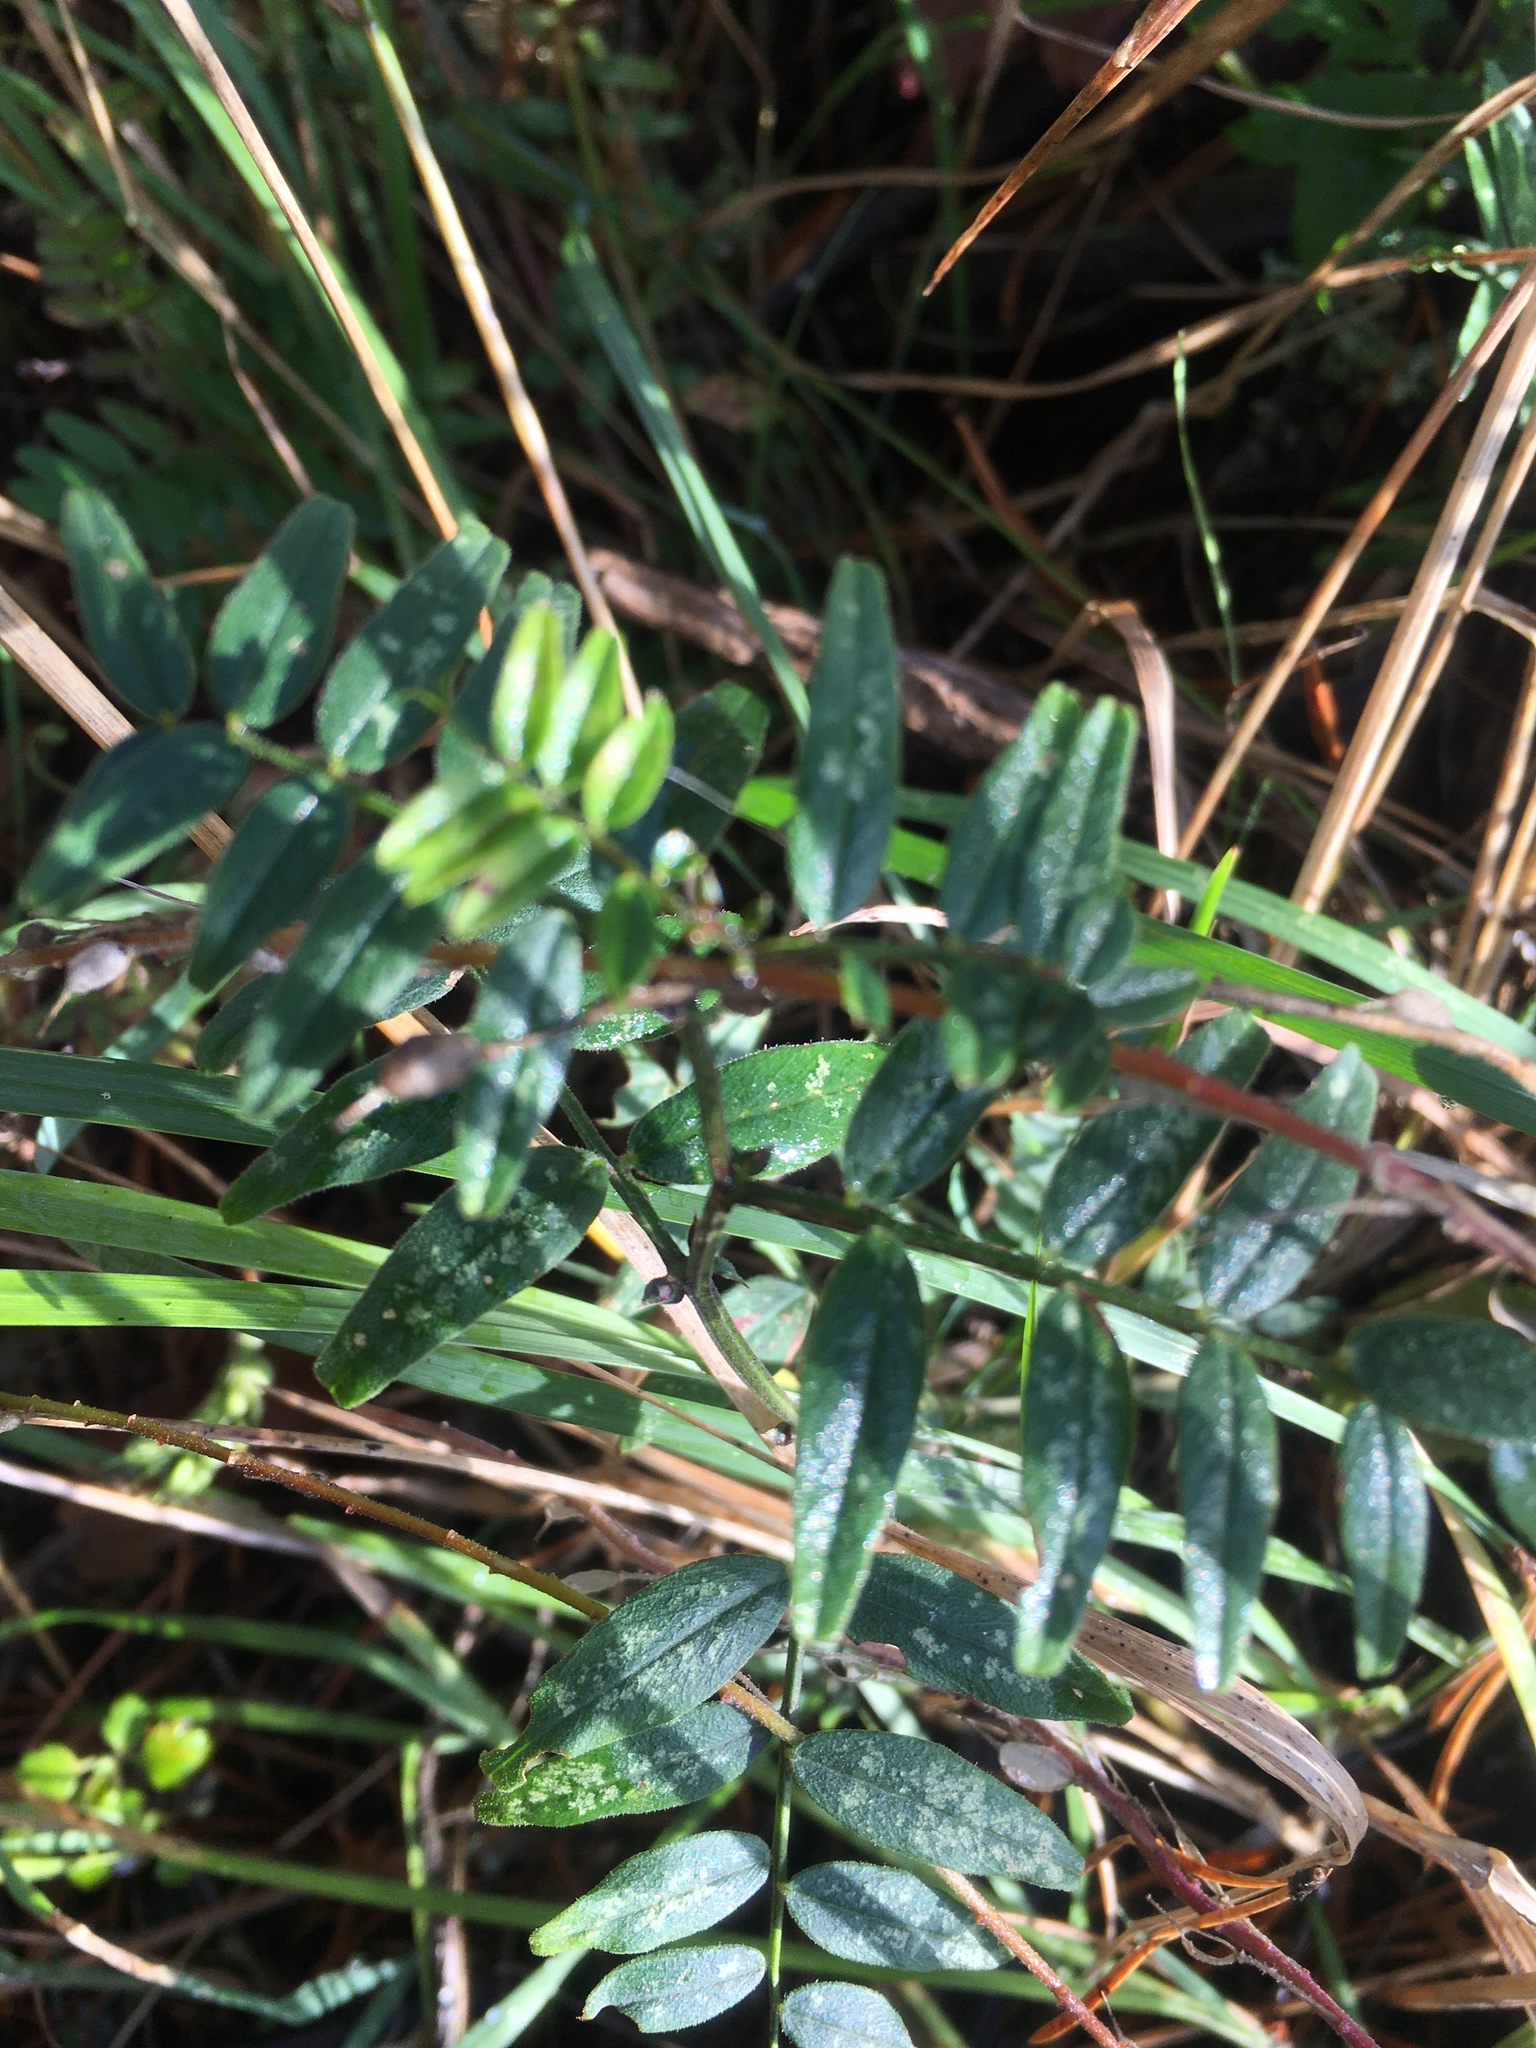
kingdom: Plantae
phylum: Tracheophyta
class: Magnoliopsida
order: Fabales
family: Fabaceae
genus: Vicia
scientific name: Vicia sepium
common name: Bush vetch
